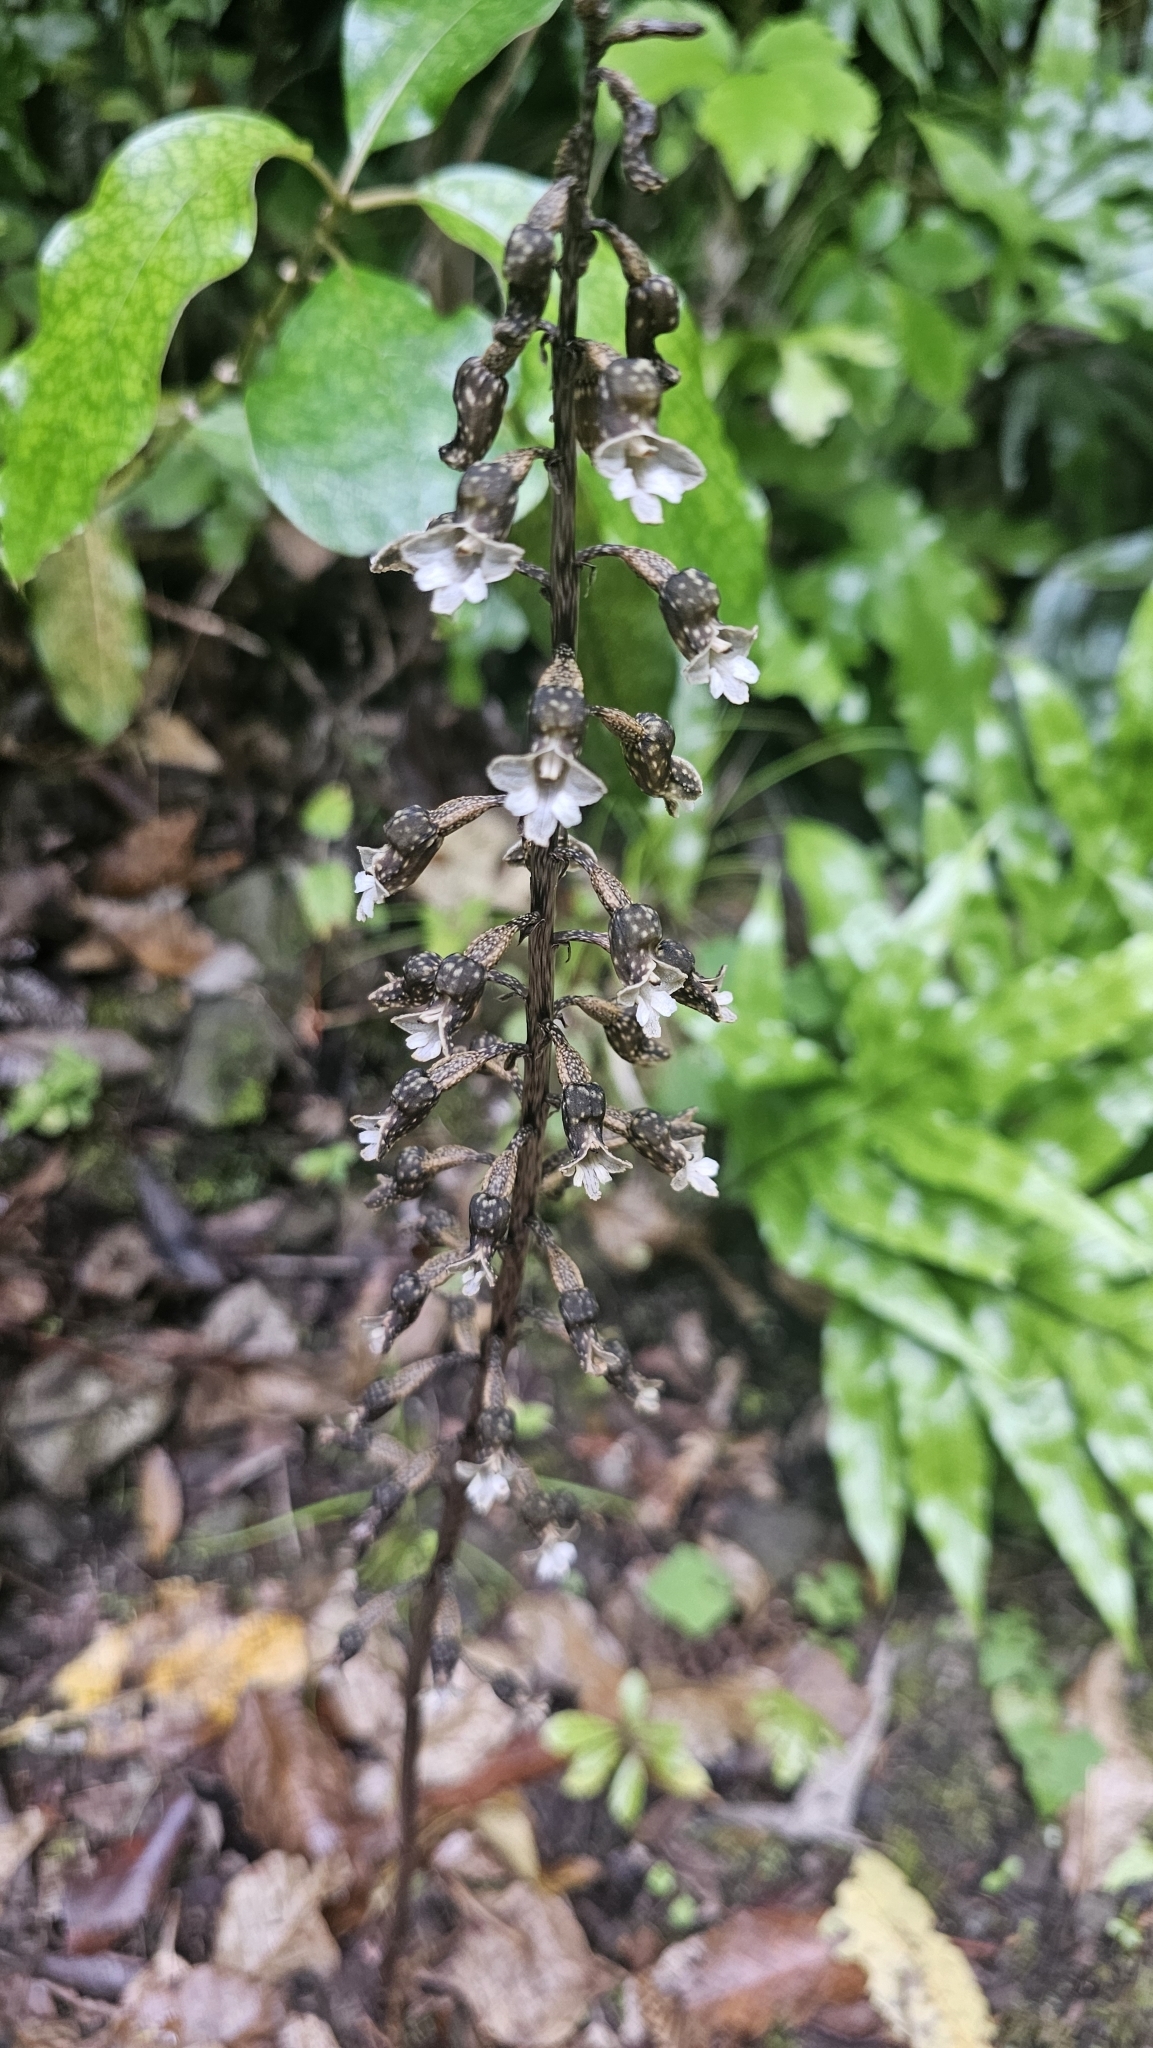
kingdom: Plantae
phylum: Tracheophyta
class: Liliopsida
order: Asparagales
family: Orchidaceae
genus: Gastrodia
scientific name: Gastrodia cunninghamii
